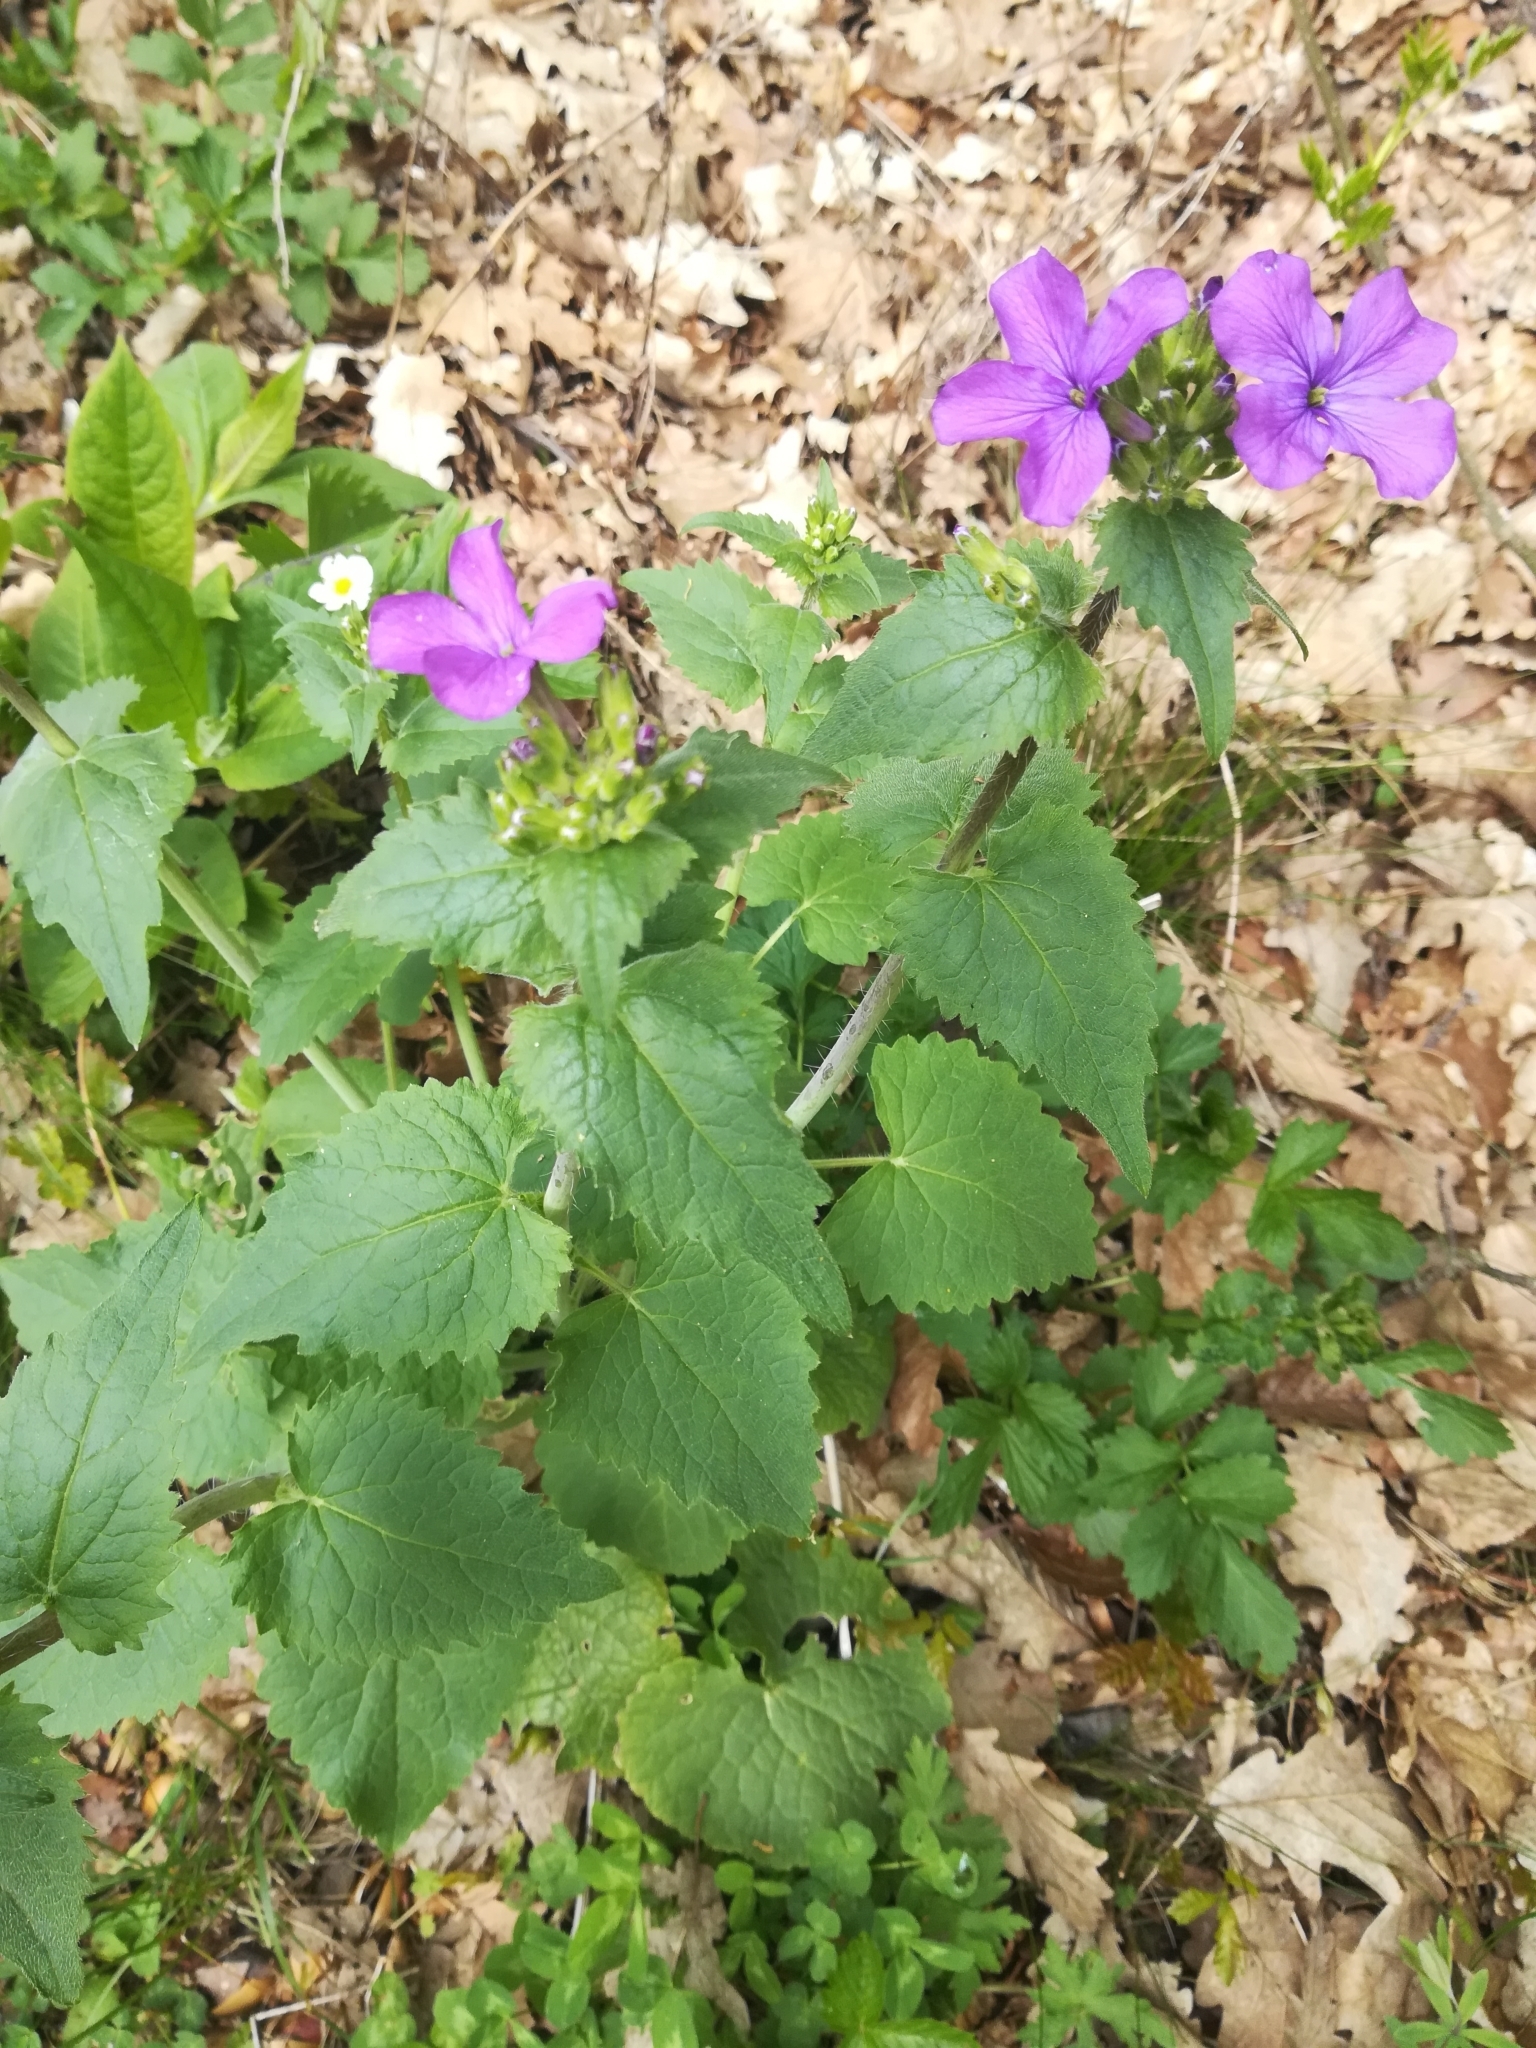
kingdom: Plantae
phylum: Tracheophyta
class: Magnoliopsida
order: Brassicales
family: Brassicaceae
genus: Lunaria
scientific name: Lunaria annua
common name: Honesty
